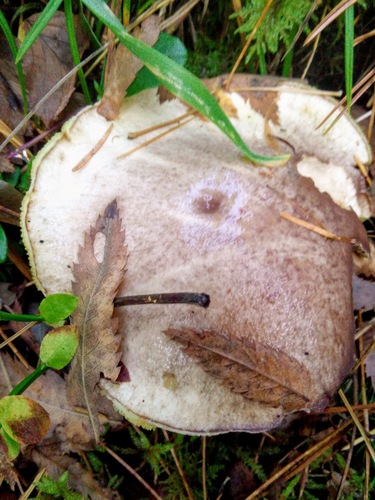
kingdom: Fungi
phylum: Basidiomycota
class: Agaricomycetes
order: Boletales
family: Suillaceae
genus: Suillus
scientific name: Suillus placidus
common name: Slippery white bolete
